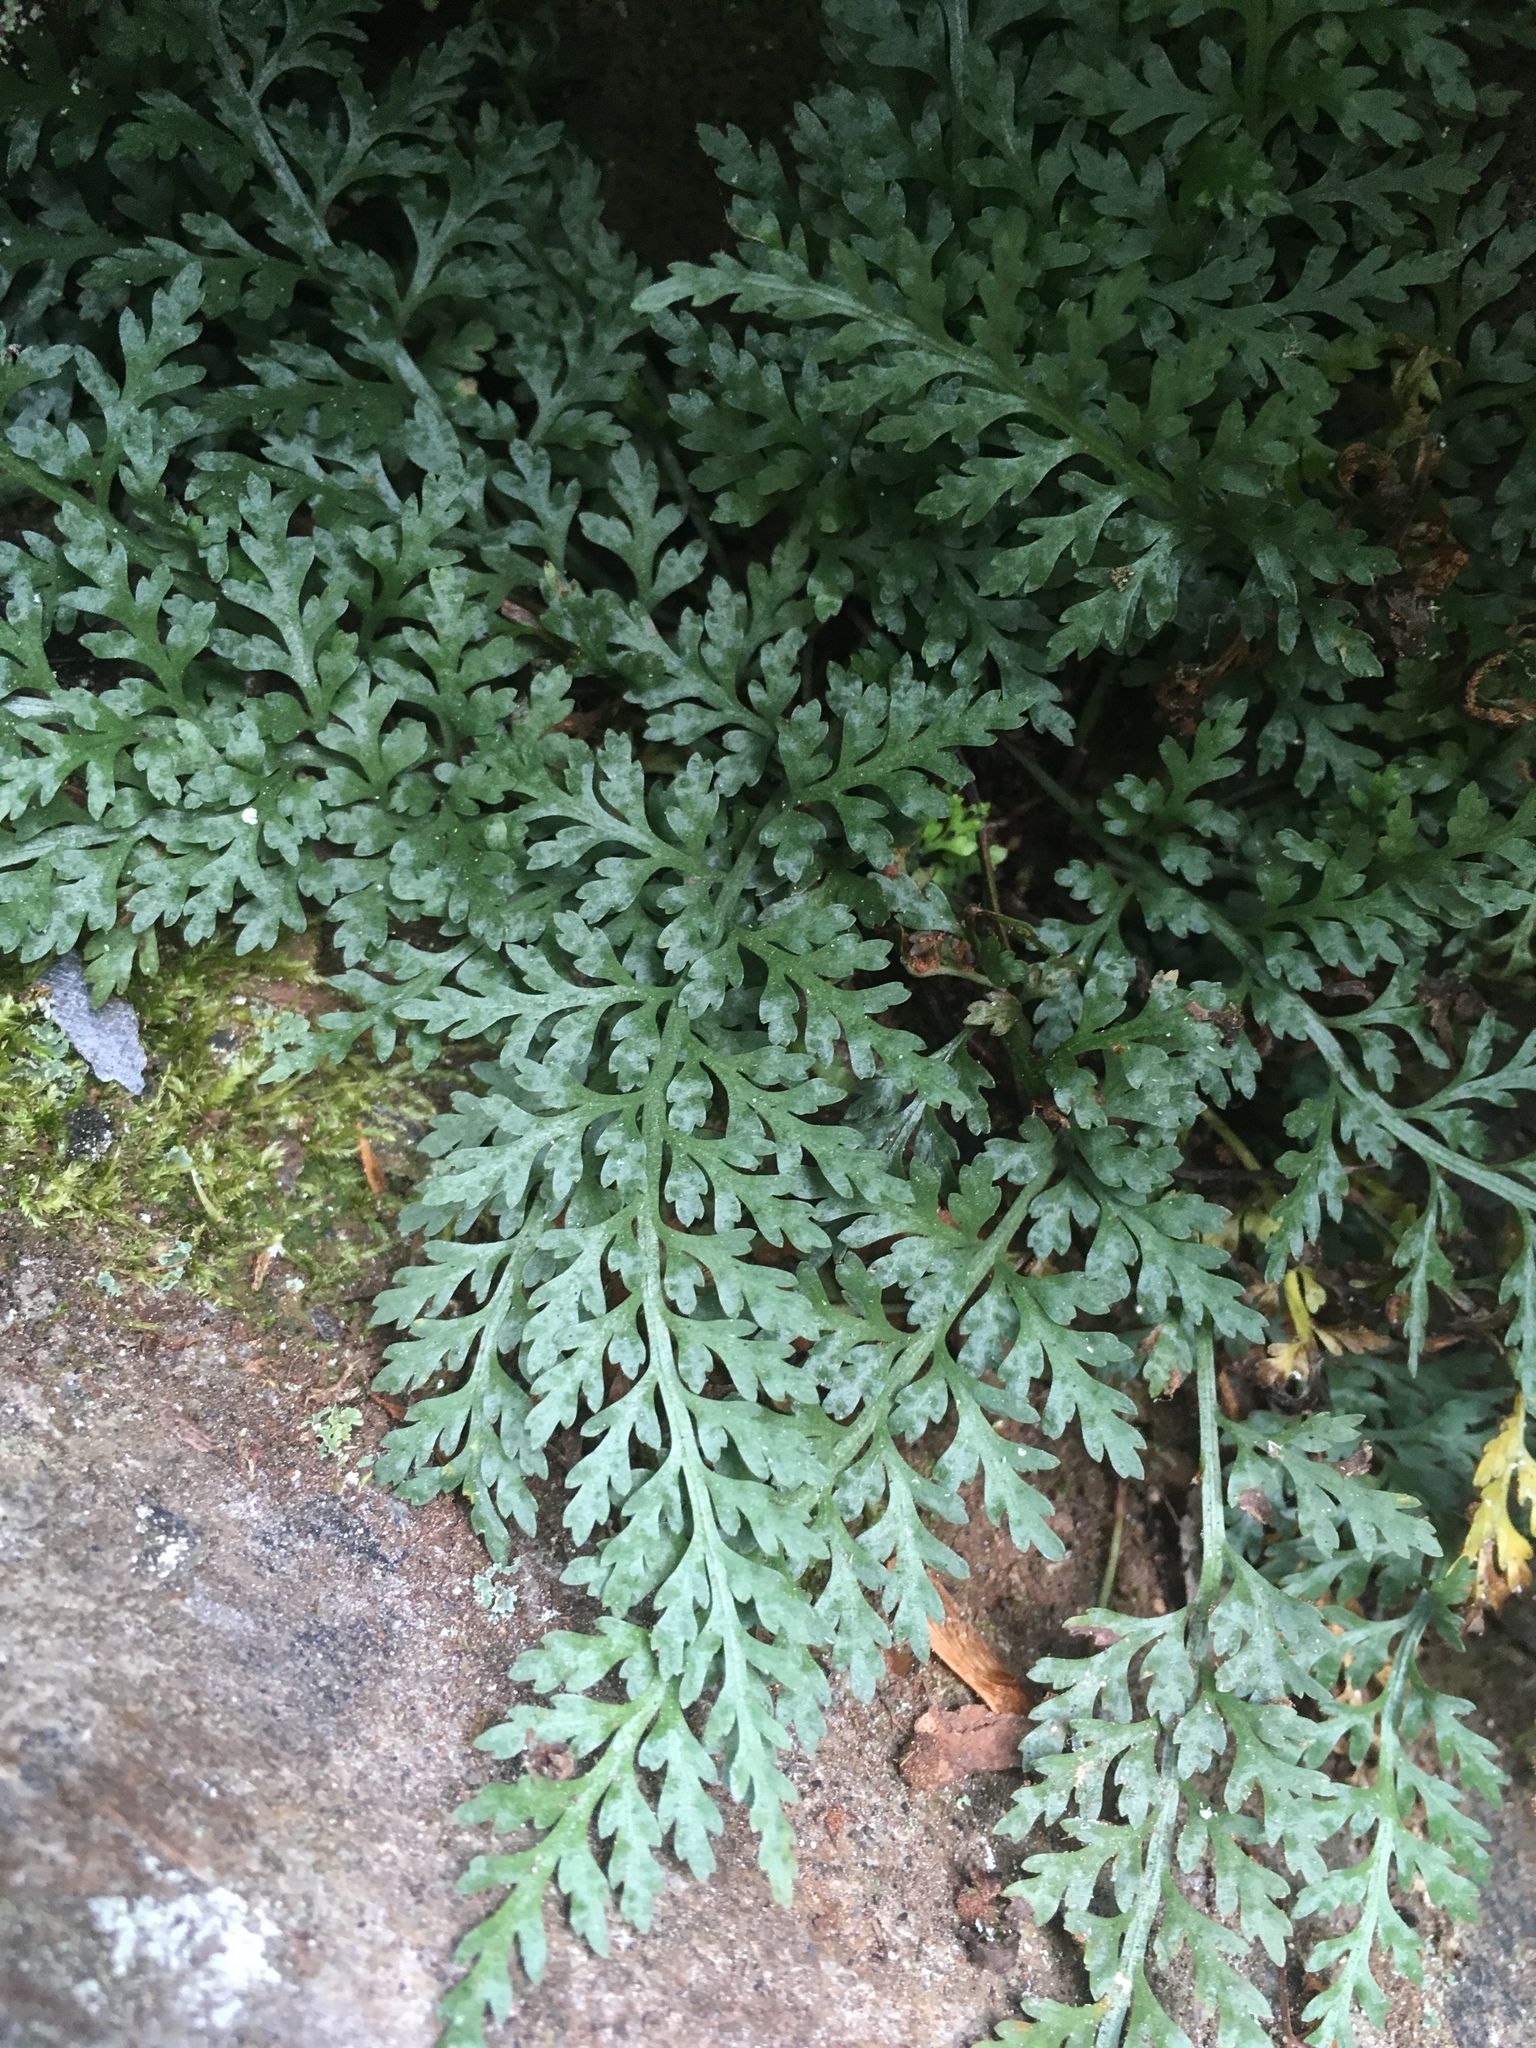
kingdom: Plantae
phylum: Tracheophyta
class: Polypodiopsida
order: Polypodiales
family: Aspleniaceae
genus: Asplenium
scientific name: Asplenium montanum
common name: Mountain spleenwort
